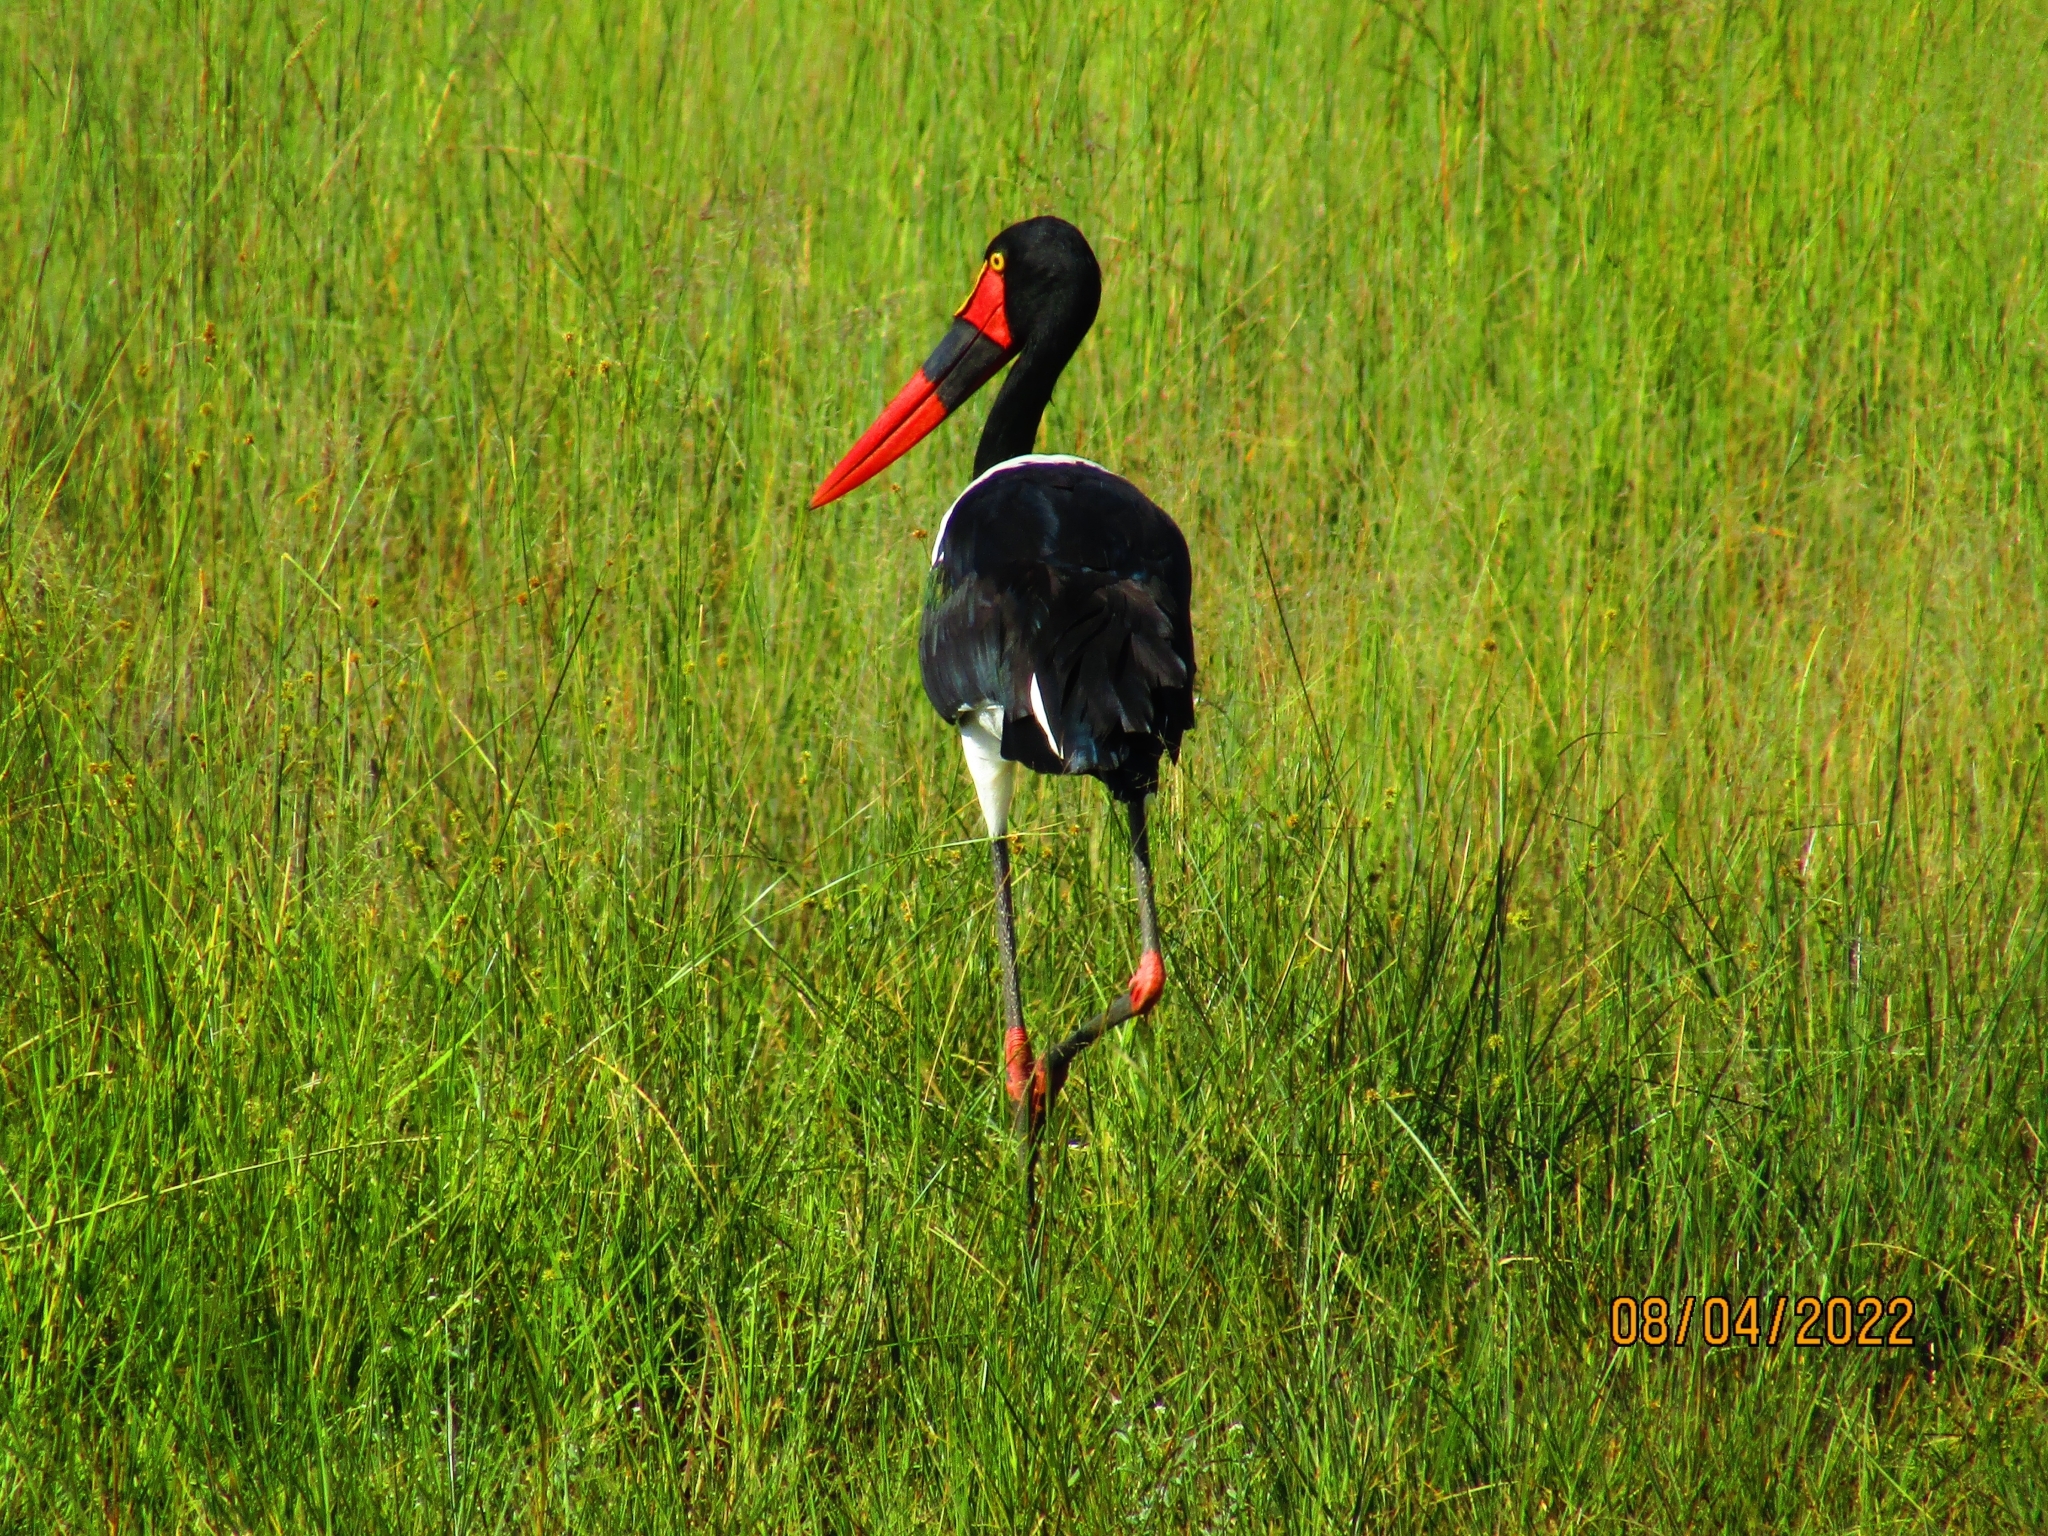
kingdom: Animalia
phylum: Chordata
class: Aves
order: Ciconiiformes
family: Ciconiidae
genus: Ephippiorhynchus
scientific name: Ephippiorhynchus senegalensis
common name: Saddle-billed stork
